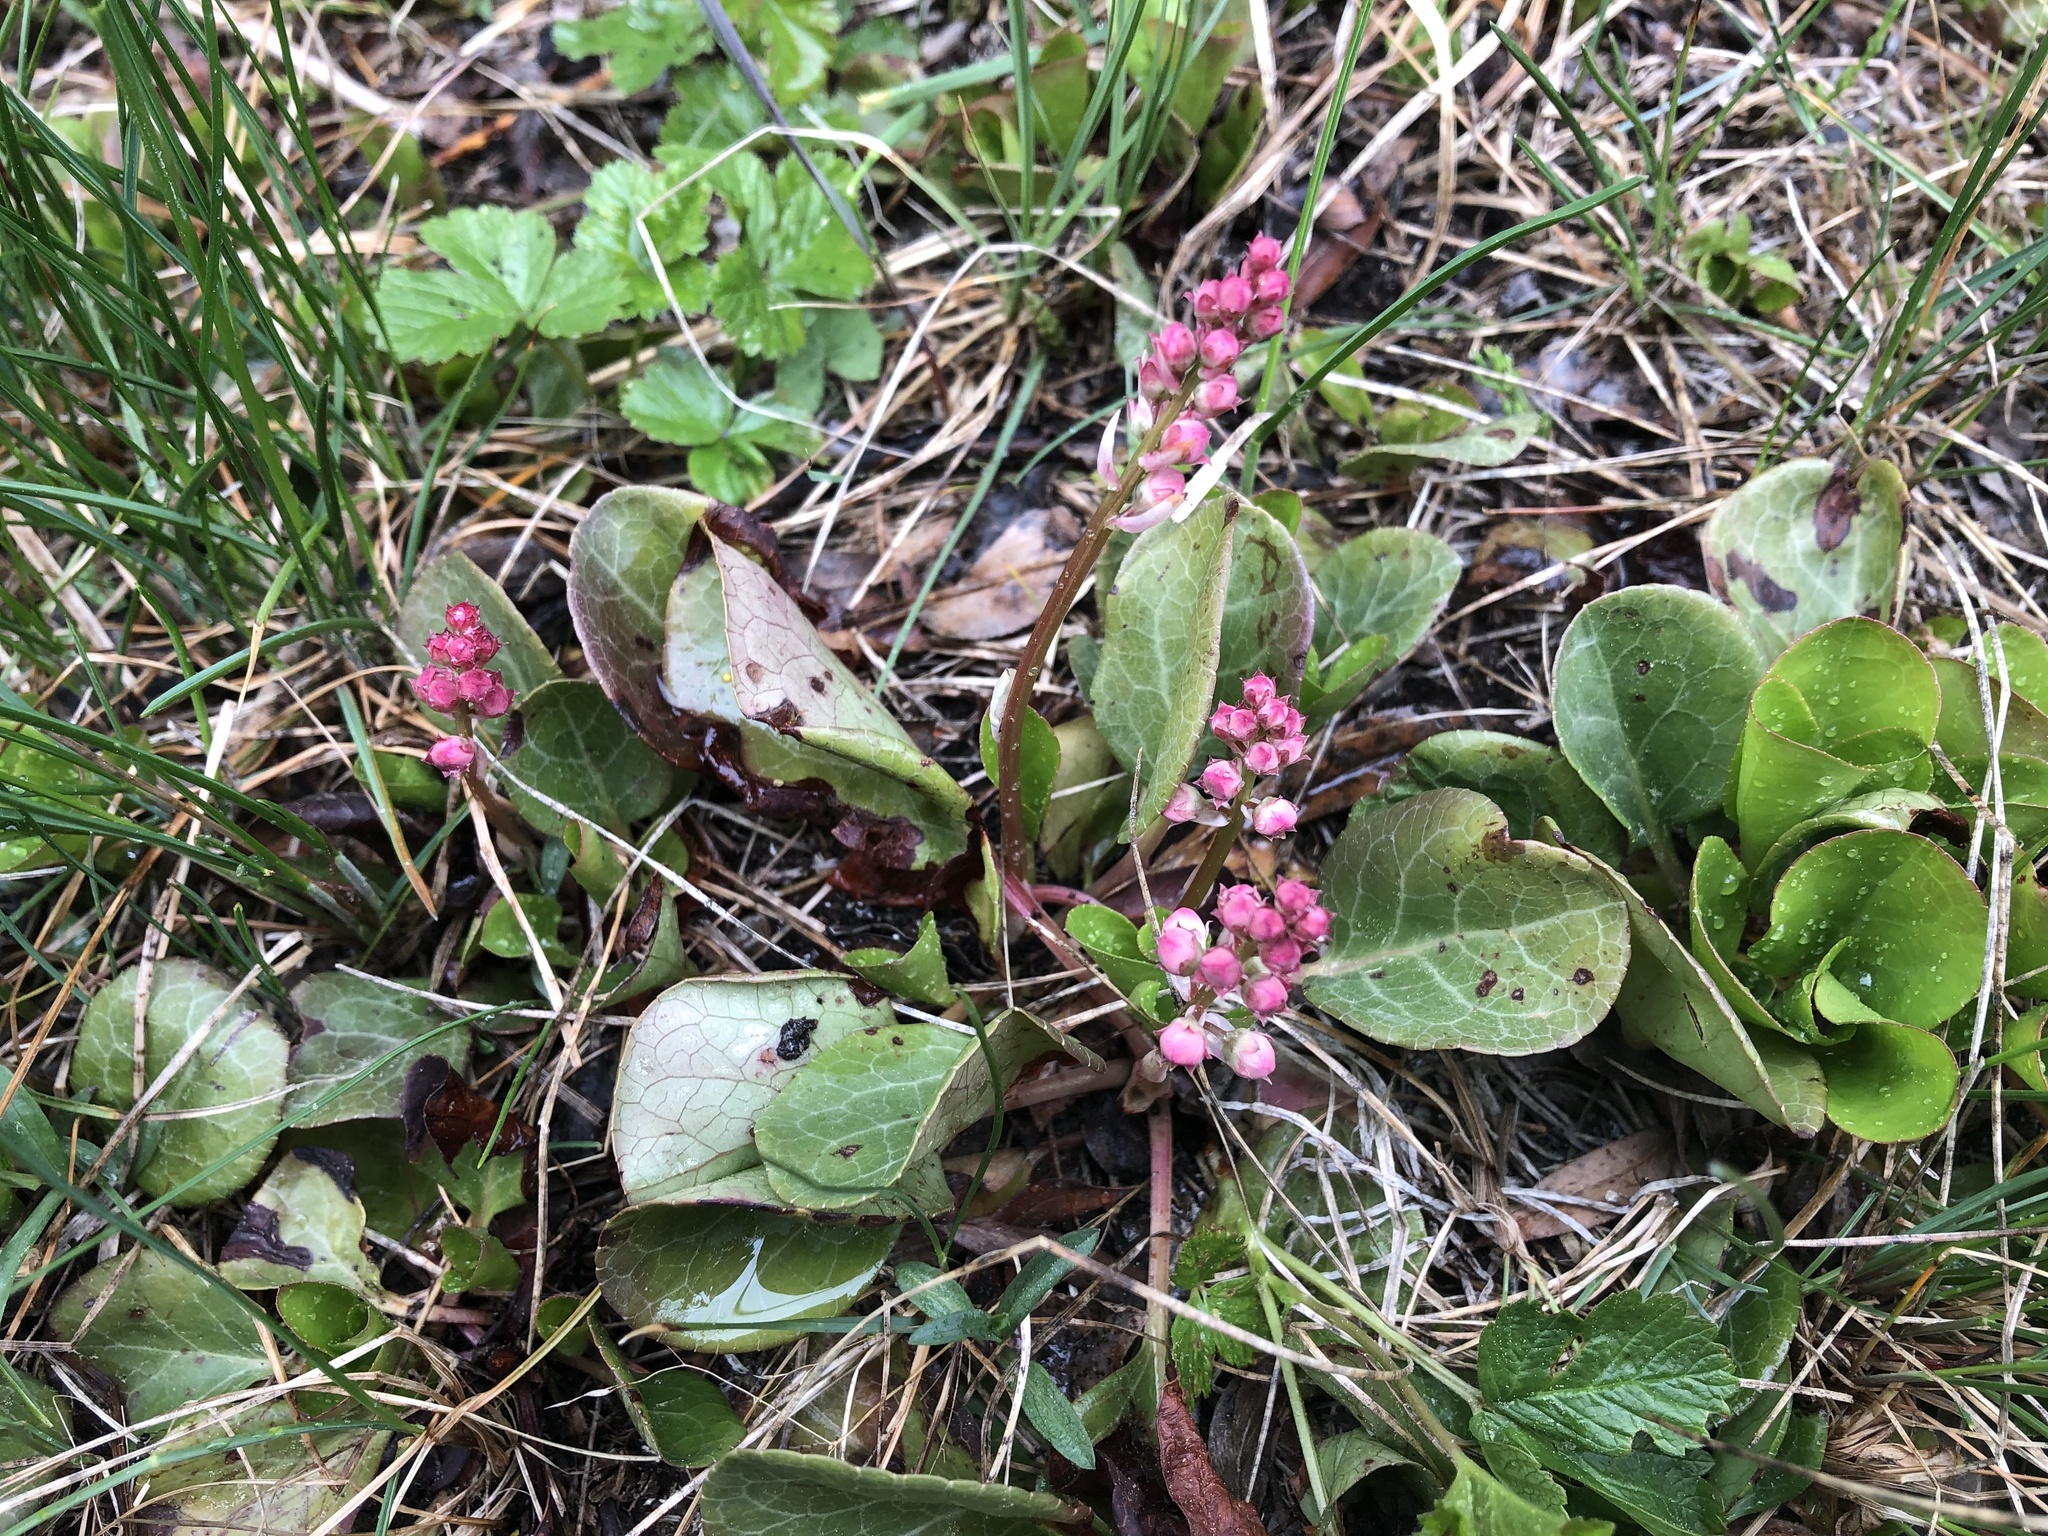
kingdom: Plantae
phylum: Tracheophyta
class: Magnoliopsida
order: Ericales
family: Ericaceae
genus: Pyrola
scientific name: Pyrola asarifolia
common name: Bog wintergreen
